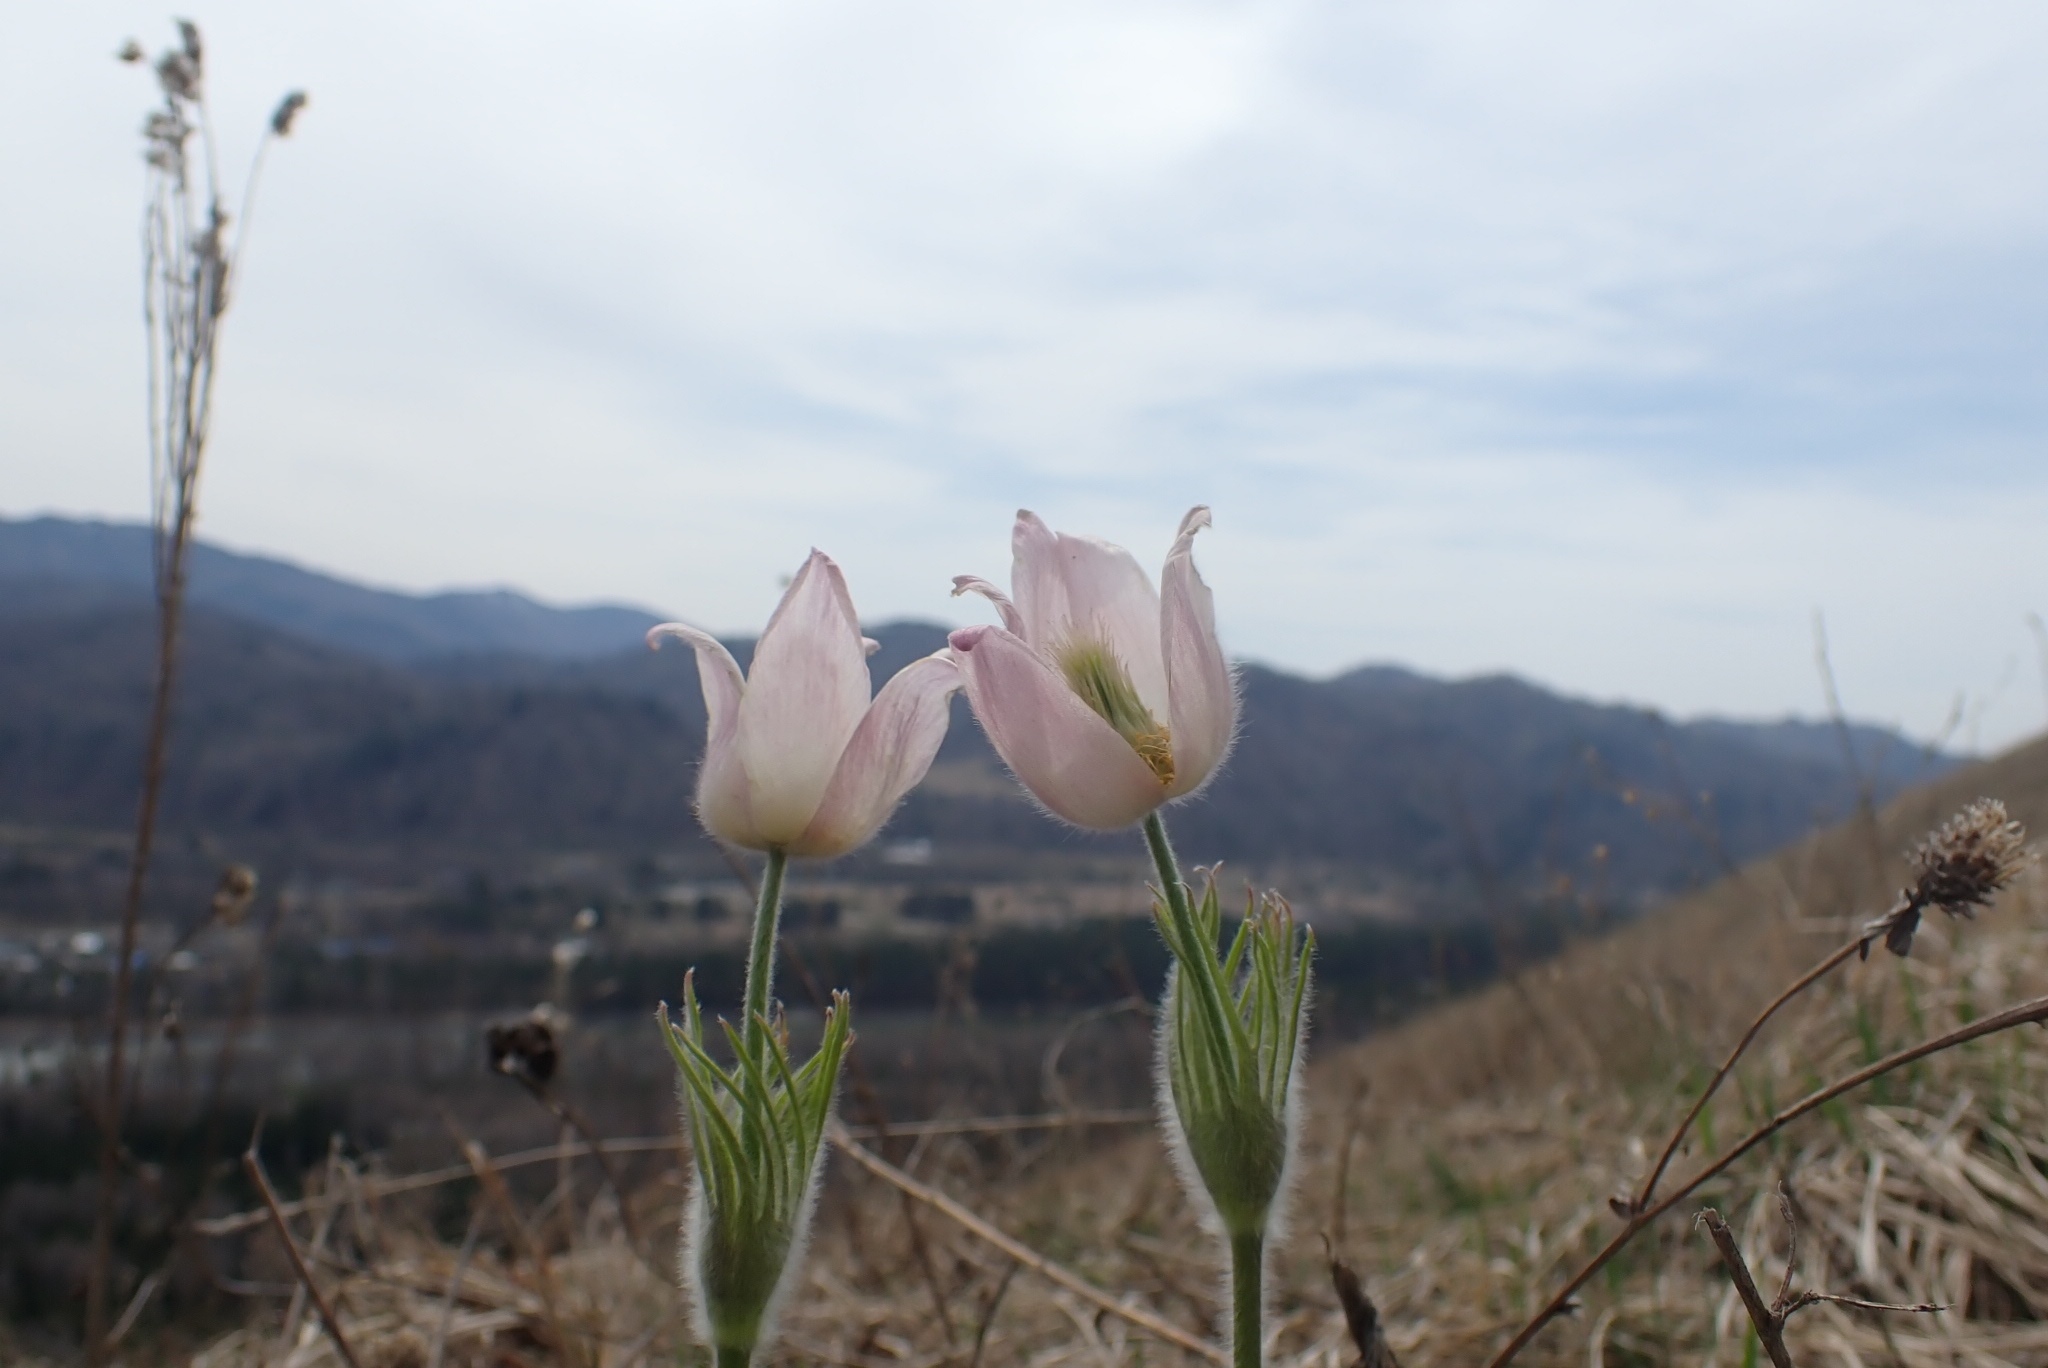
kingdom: Plantae
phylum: Tracheophyta
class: Magnoliopsida
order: Ranunculales
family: Ranunculaceae
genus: Pulsatilla
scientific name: Pulsatilla patens
